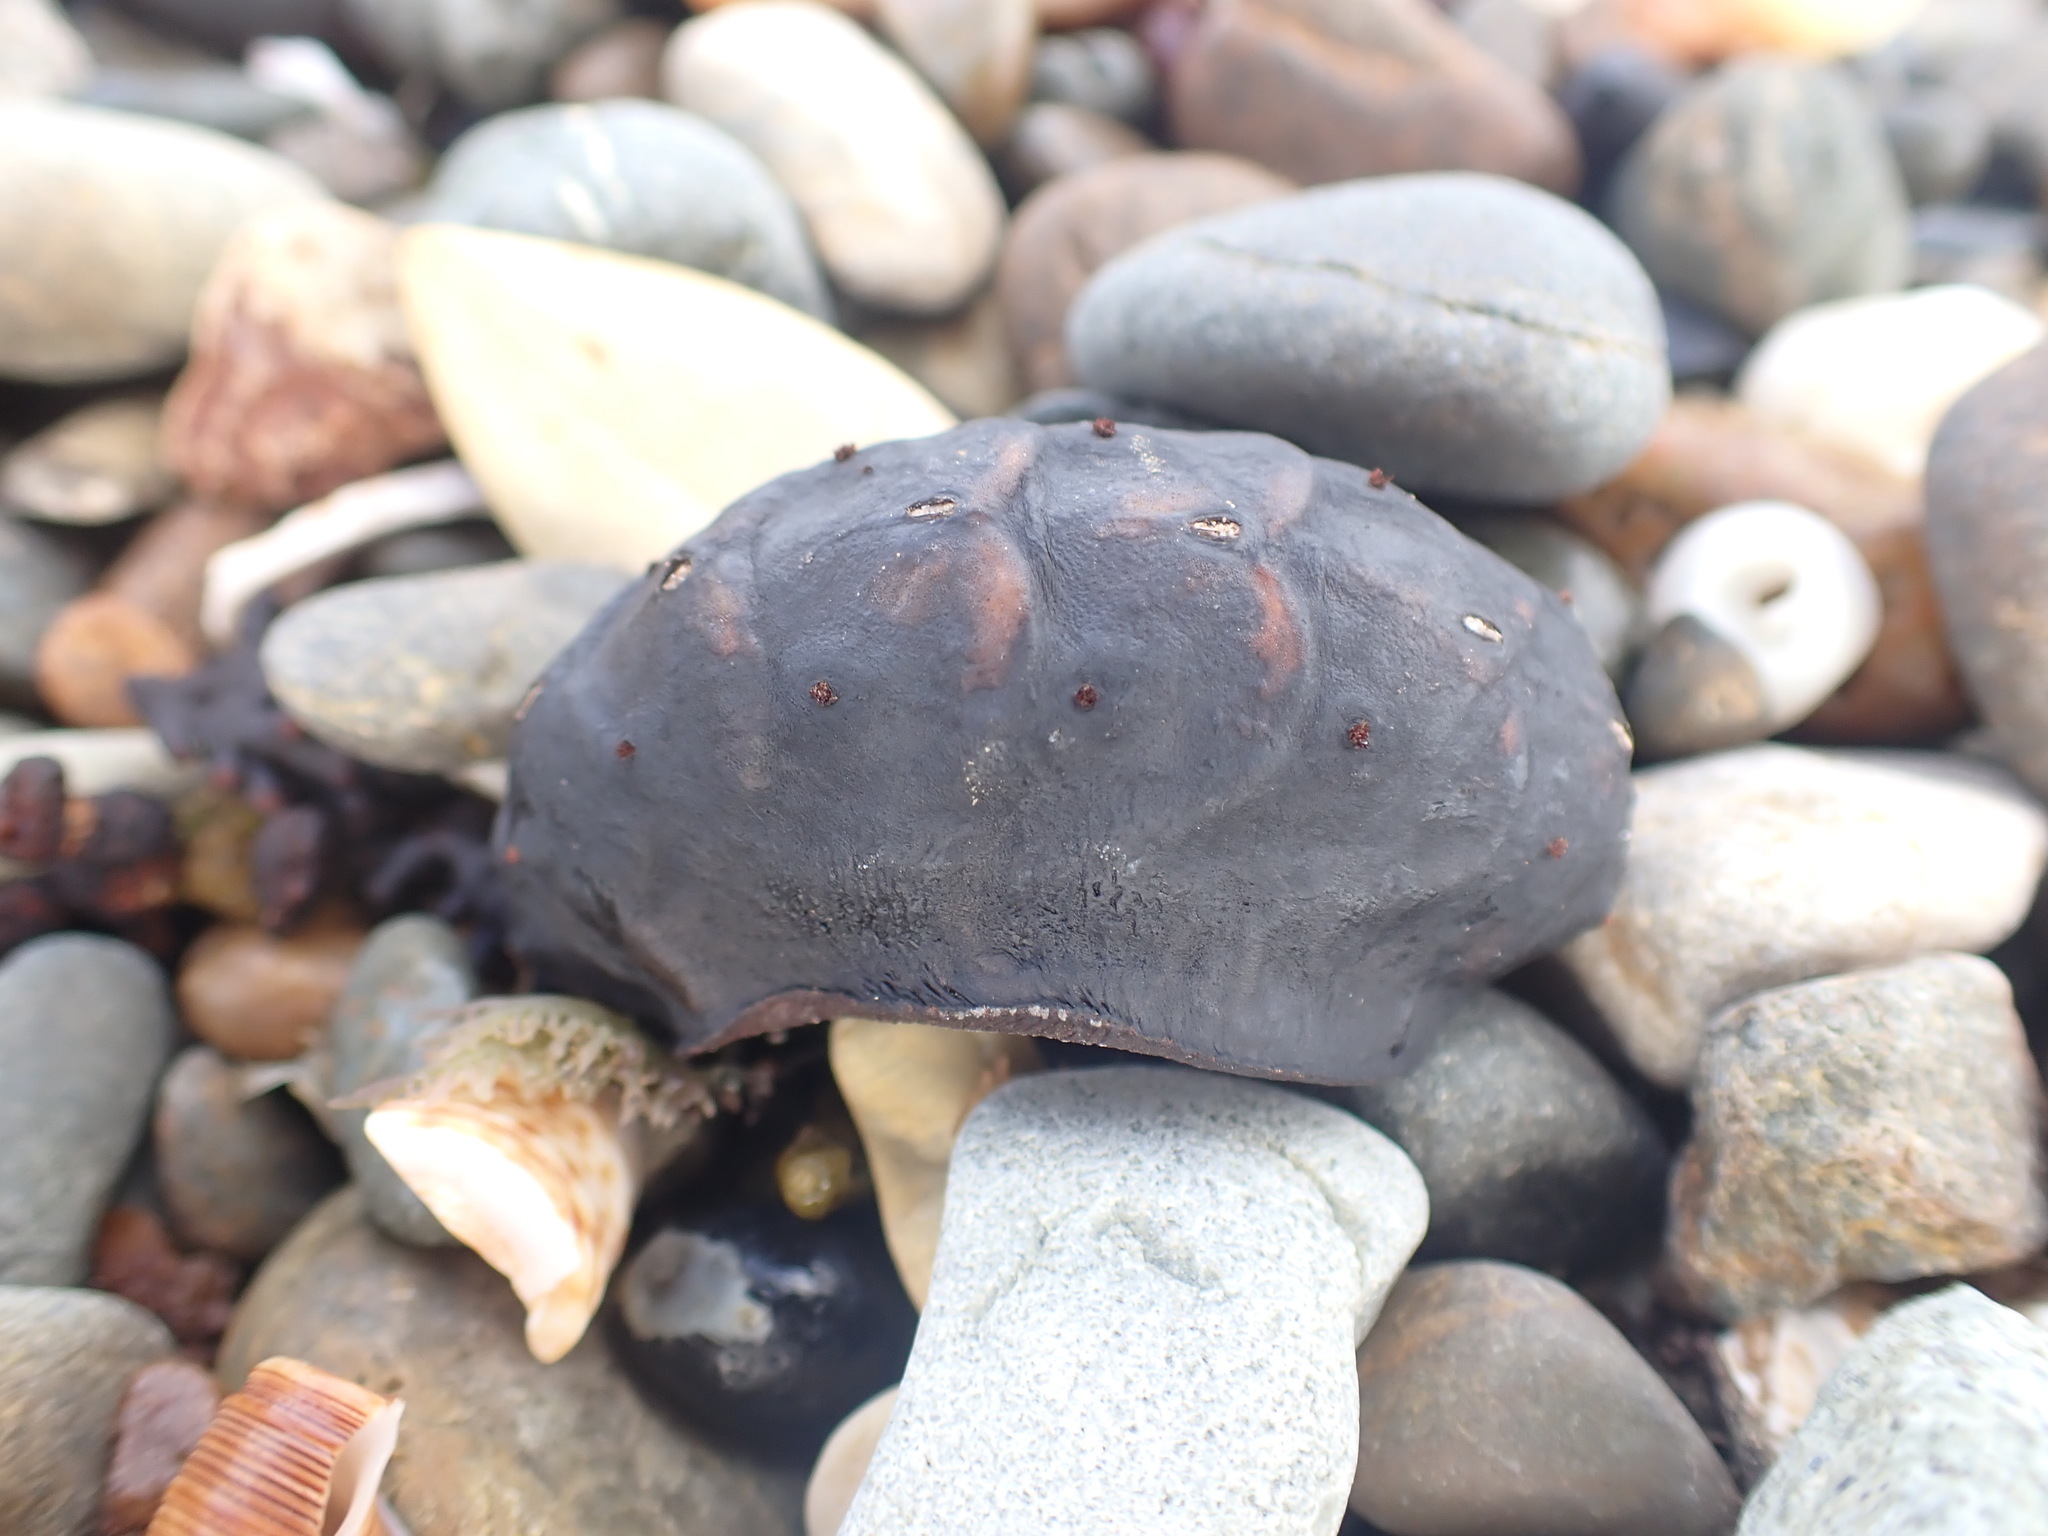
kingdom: Animalia
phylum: Mollusca
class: Polyplacophora
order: Chitonida
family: Acanthochitonidae
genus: Cryptoconchus
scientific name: Cryptoconchus porosus
